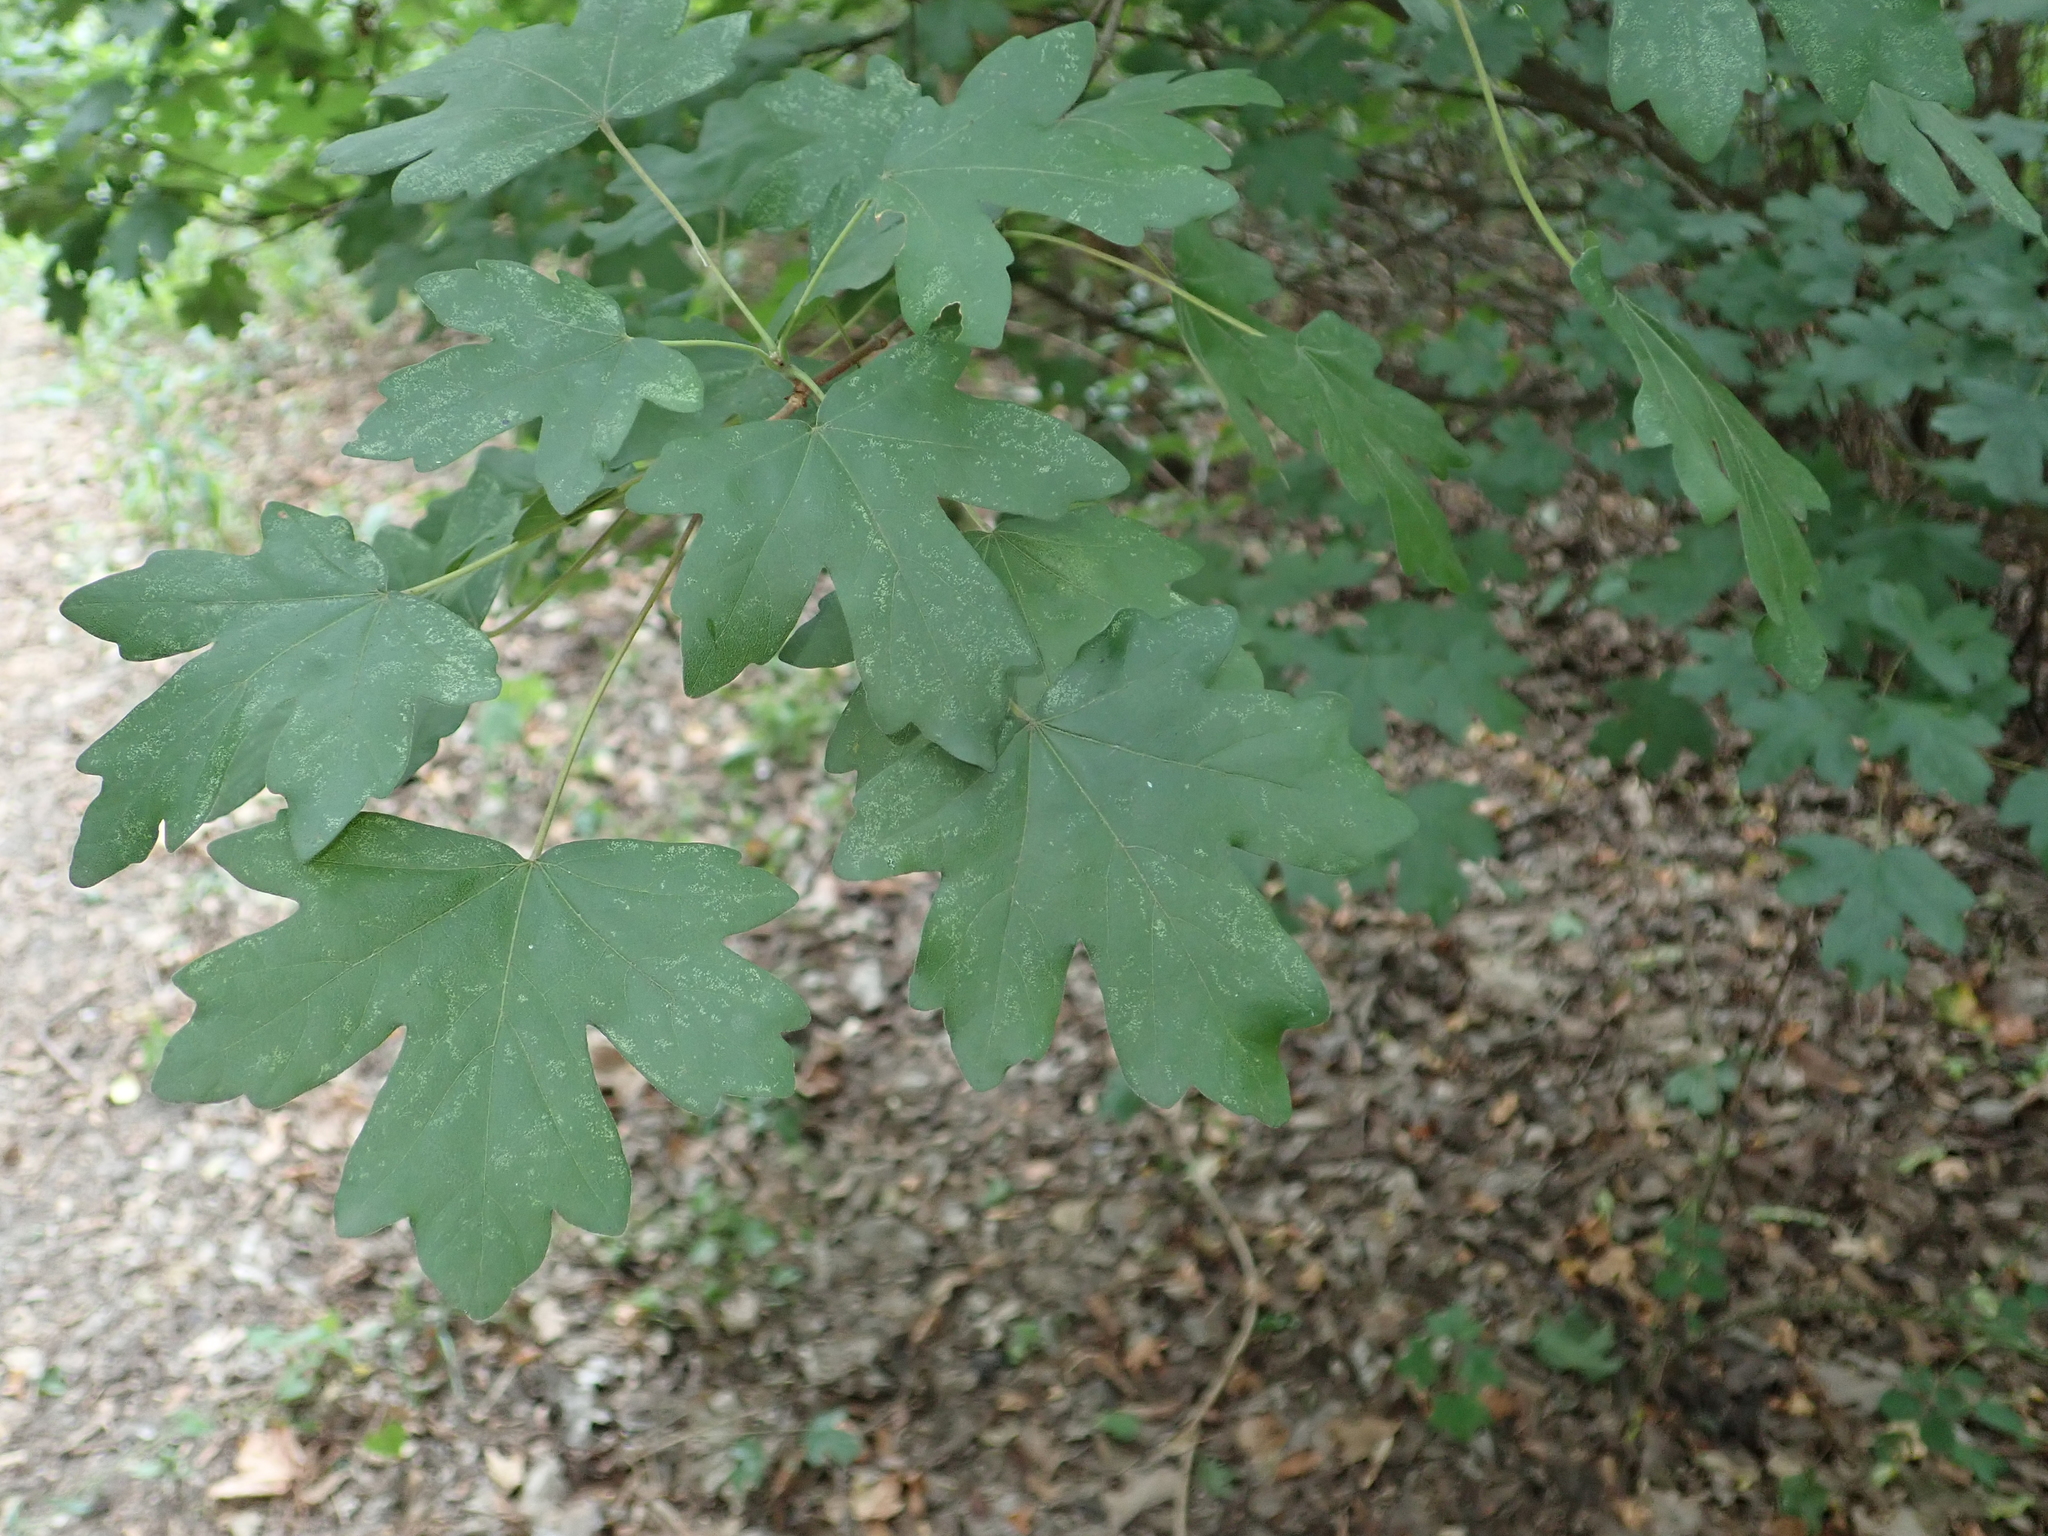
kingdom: Plantae
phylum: Tracheophyta
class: Magnoliopsida
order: Sapindales
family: Sapindaceae
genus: Acer
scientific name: Acer campestre
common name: Field maple
